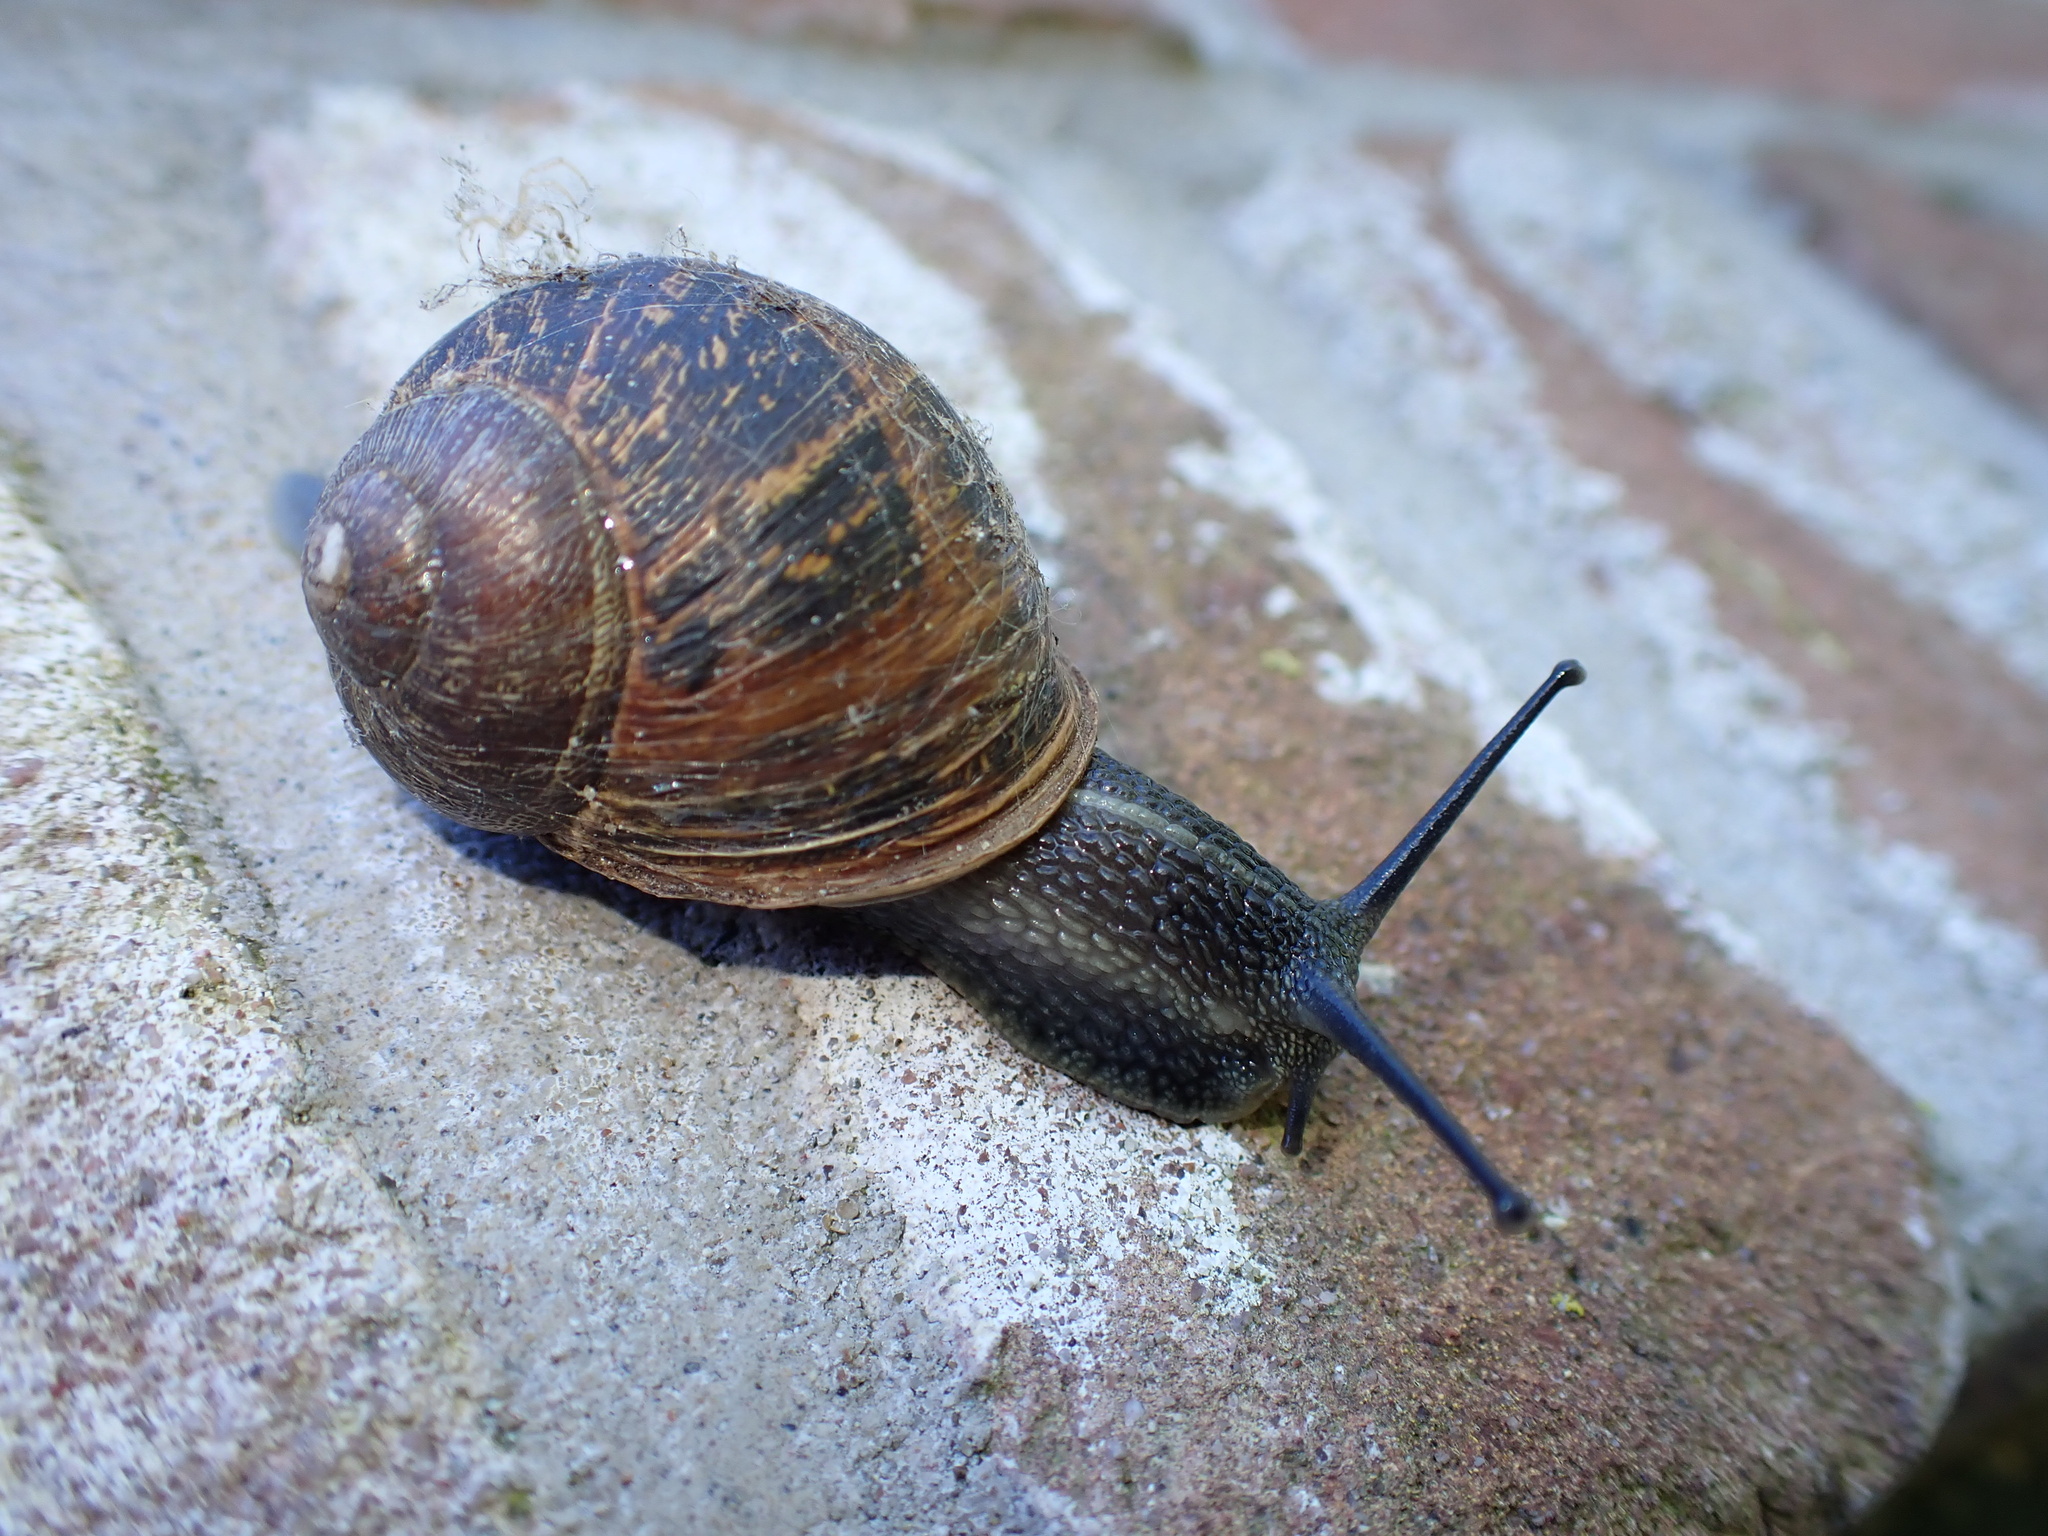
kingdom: Animalia
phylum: Mollusca
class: Gastropoda
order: Stylommatophora
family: Helicidae
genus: Cornu
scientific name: Cornu aspersum
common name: Brown garden snail
